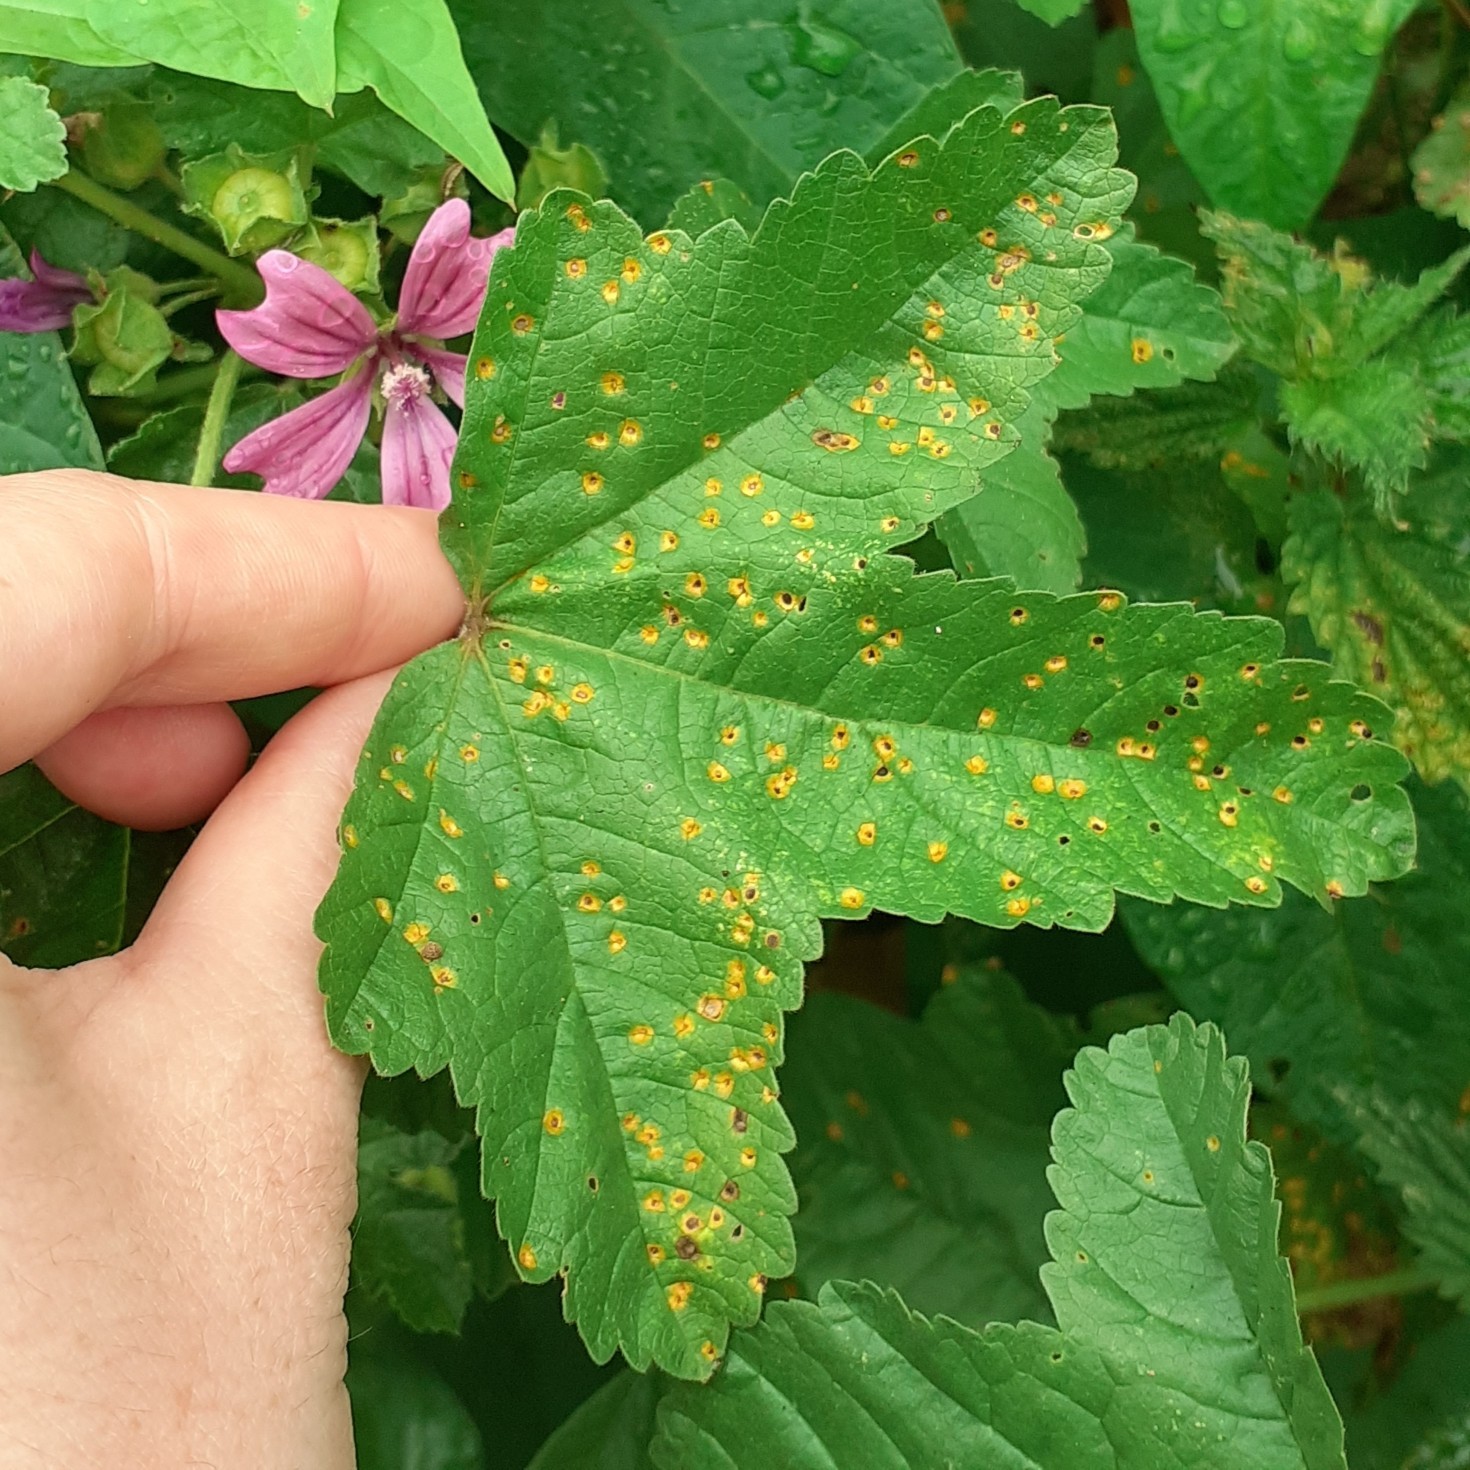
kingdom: Fungi
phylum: Basidiomycota
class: Pucciniomycetes
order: Pucciniales
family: Pucciniaceae
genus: Puccinia
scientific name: Puccinia malvacearum
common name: Hollyhock rust
